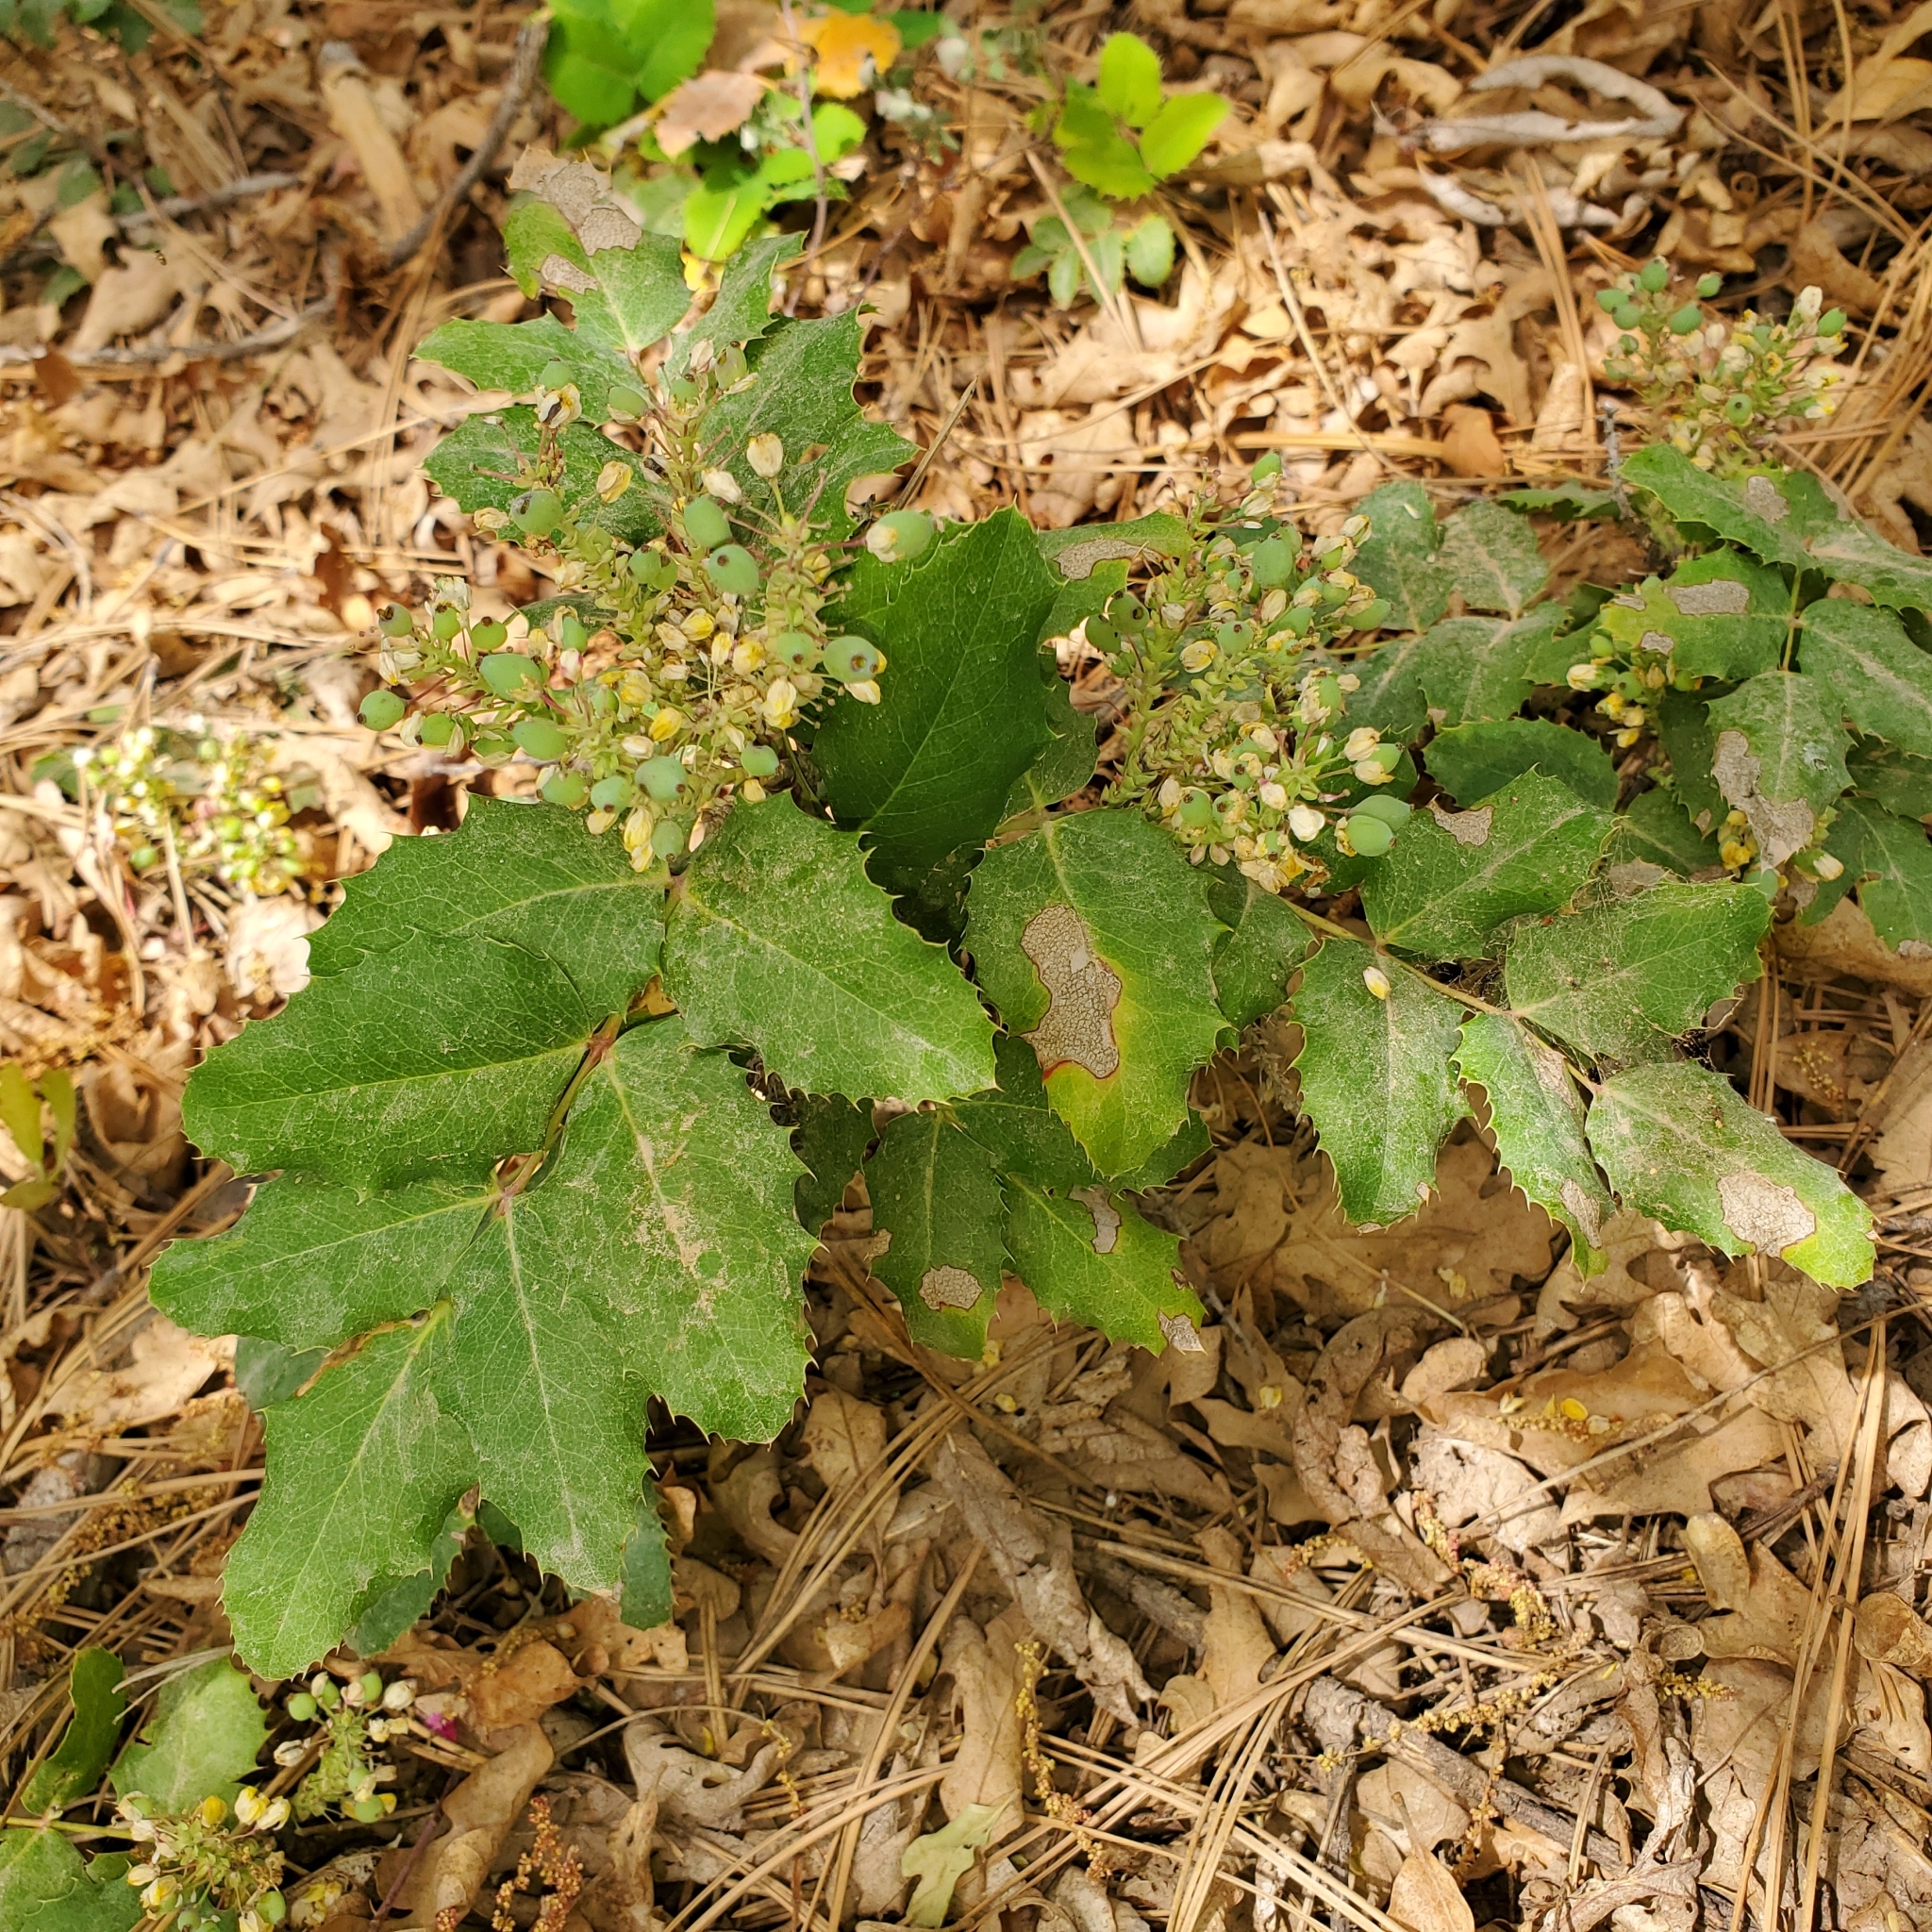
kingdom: Plantae
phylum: Tracheophyta
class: Magnoliopsida
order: Ranunculales
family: Berberidaceae
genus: Mahonia
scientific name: Mahonia repens
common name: Creeping oregon-grape
